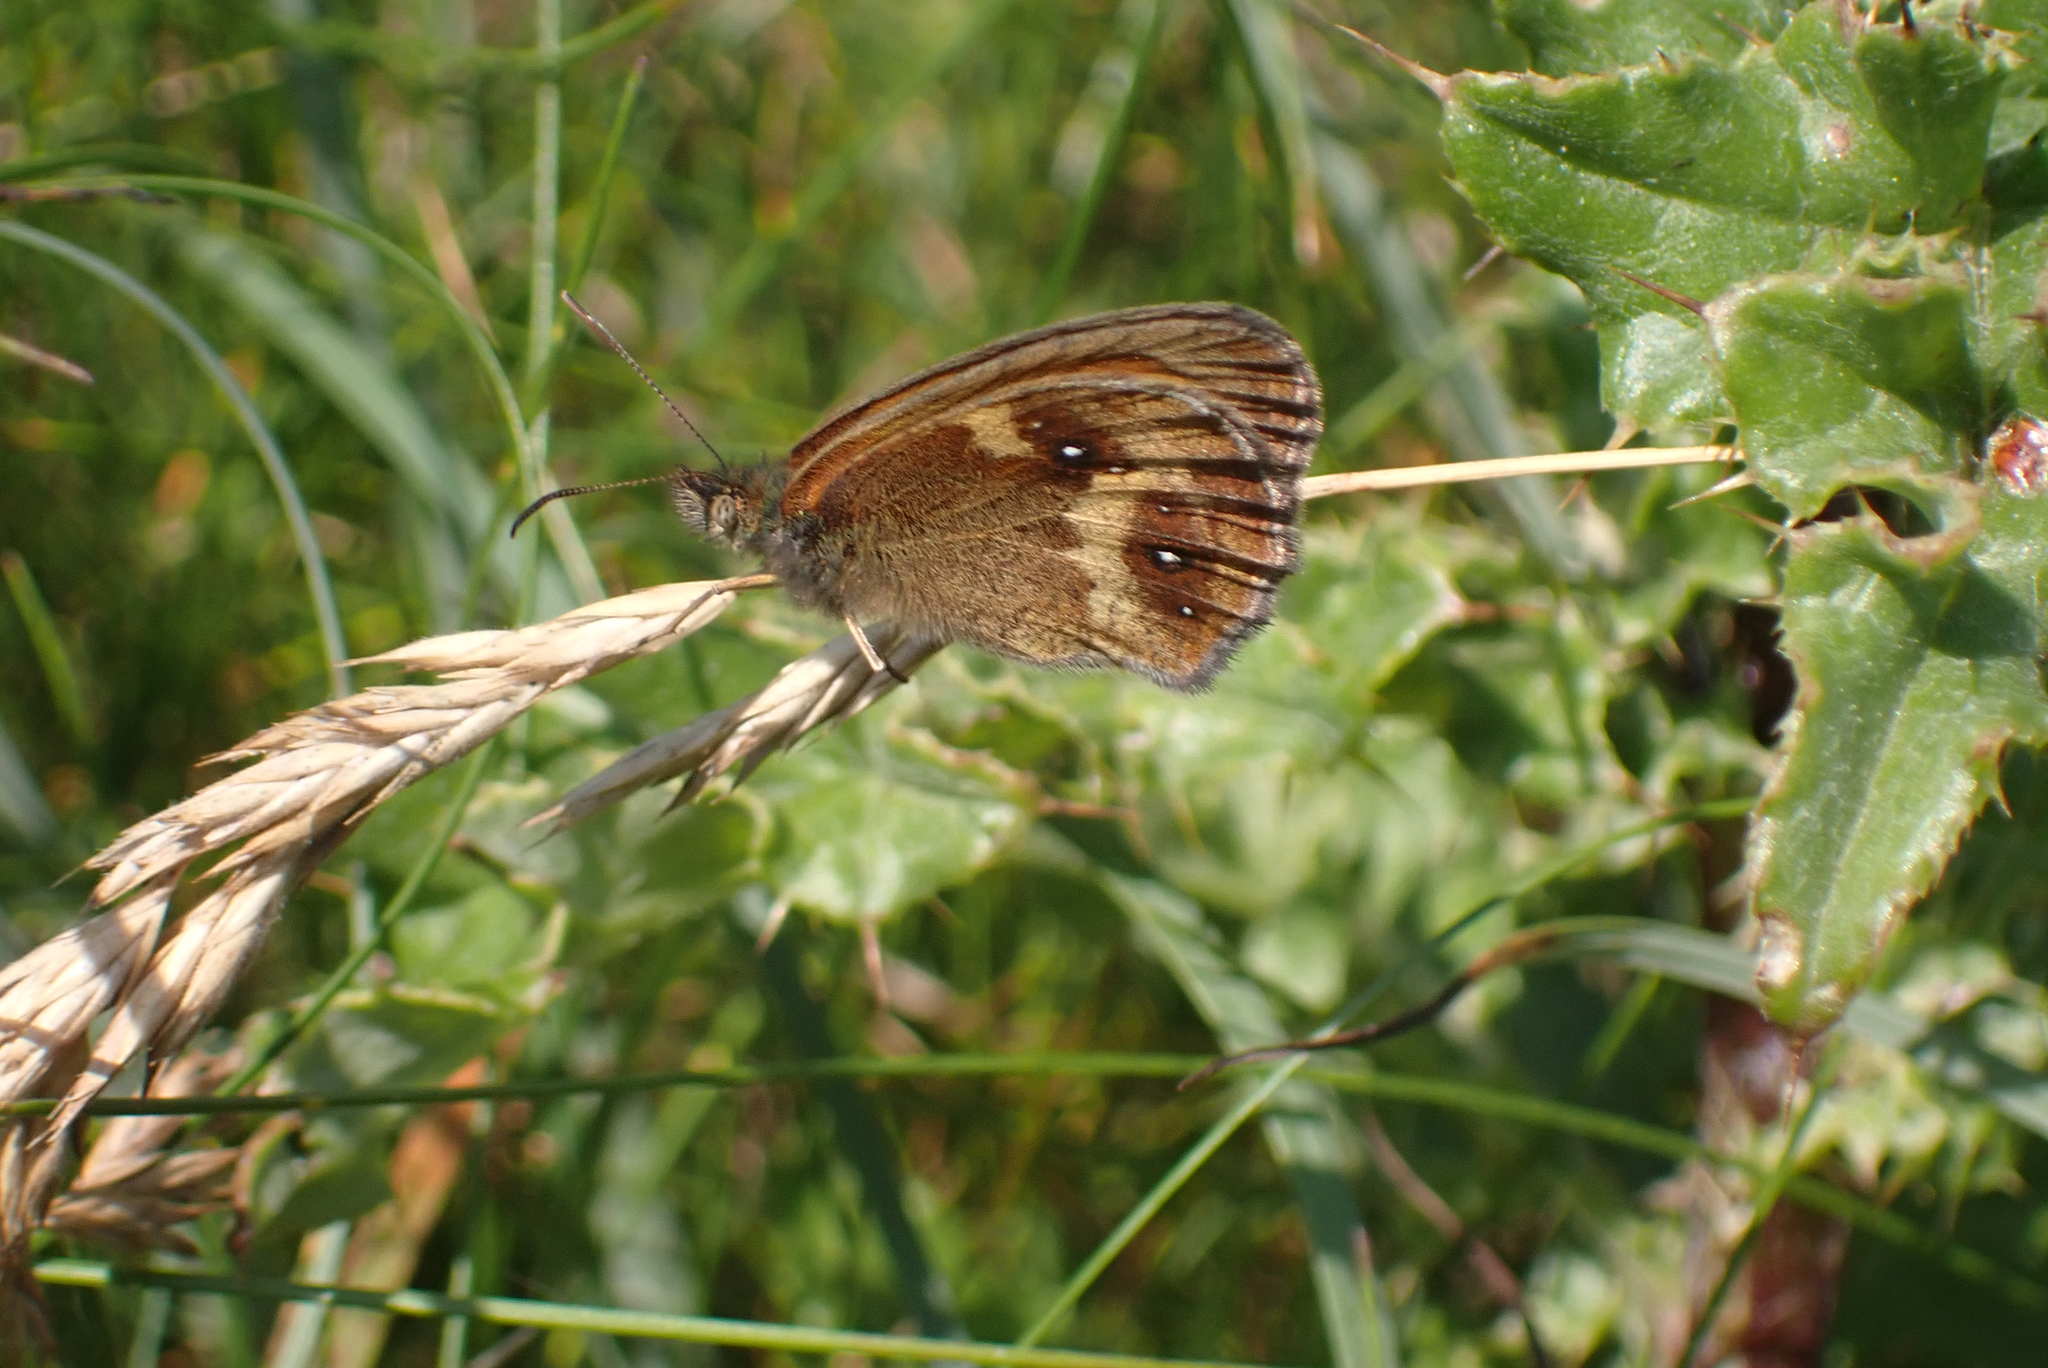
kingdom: Animalia
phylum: Arthropoda
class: Insecta
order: Lepidoptera
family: Nymphalidae
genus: Pyronia
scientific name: Pyronia tithonus
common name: Gatekeeper
